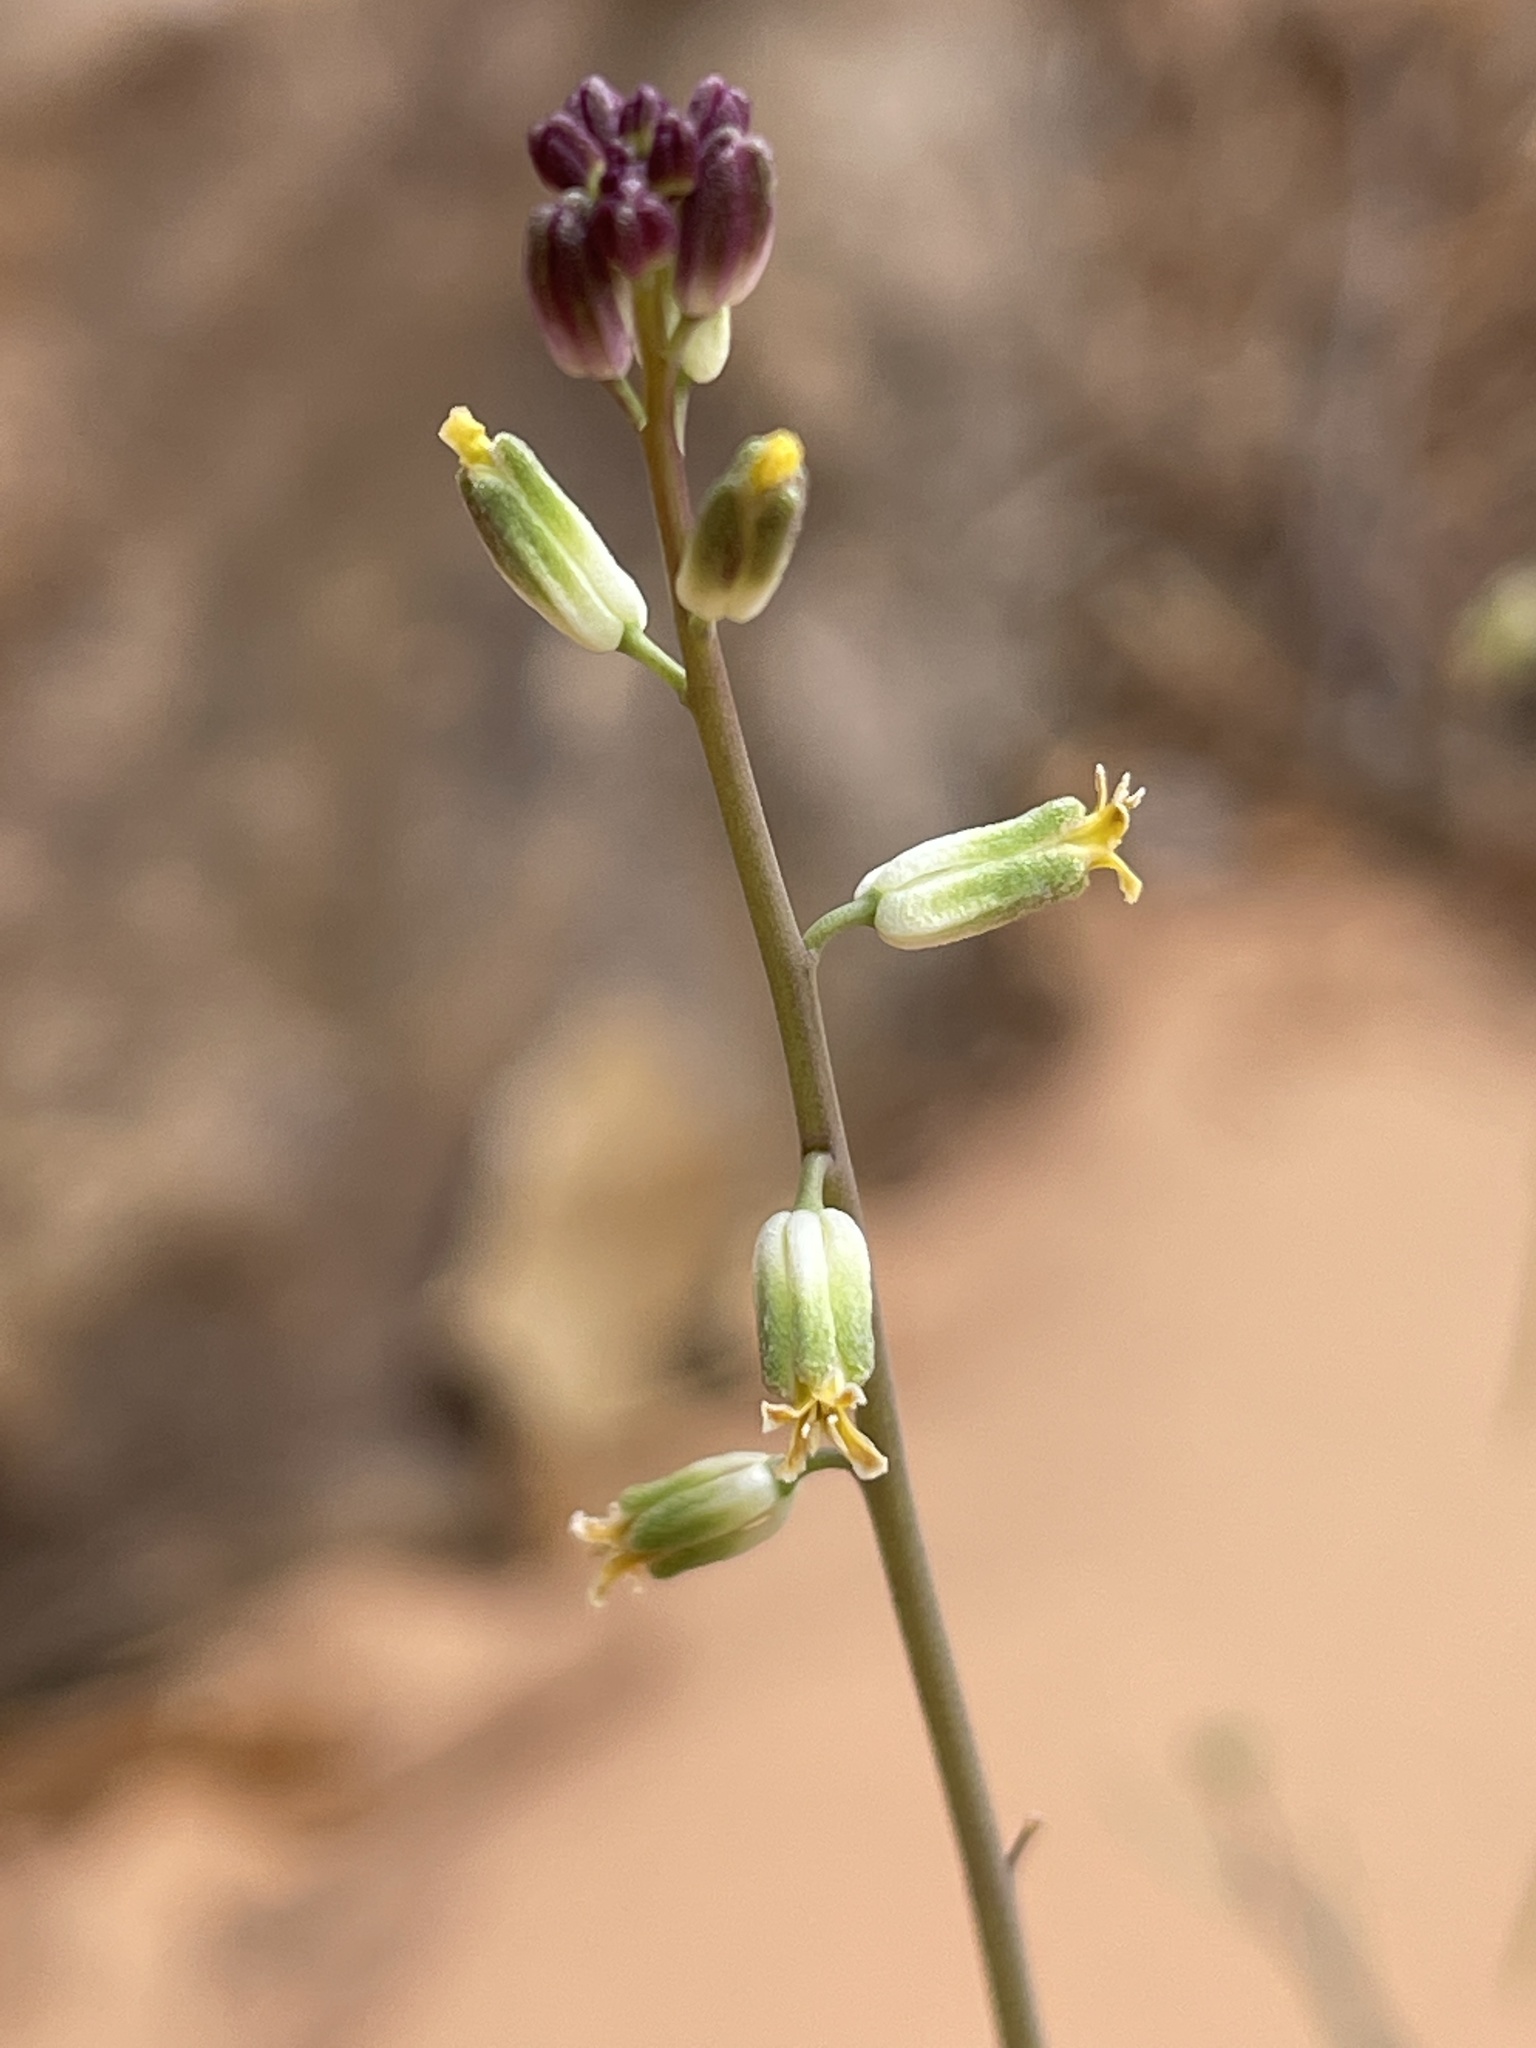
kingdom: Plantae
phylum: Tracheophyta
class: Magnoliopsida
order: Brassicales
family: Brassicaceae
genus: Streptanthus
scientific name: Streptanthus longirostris
